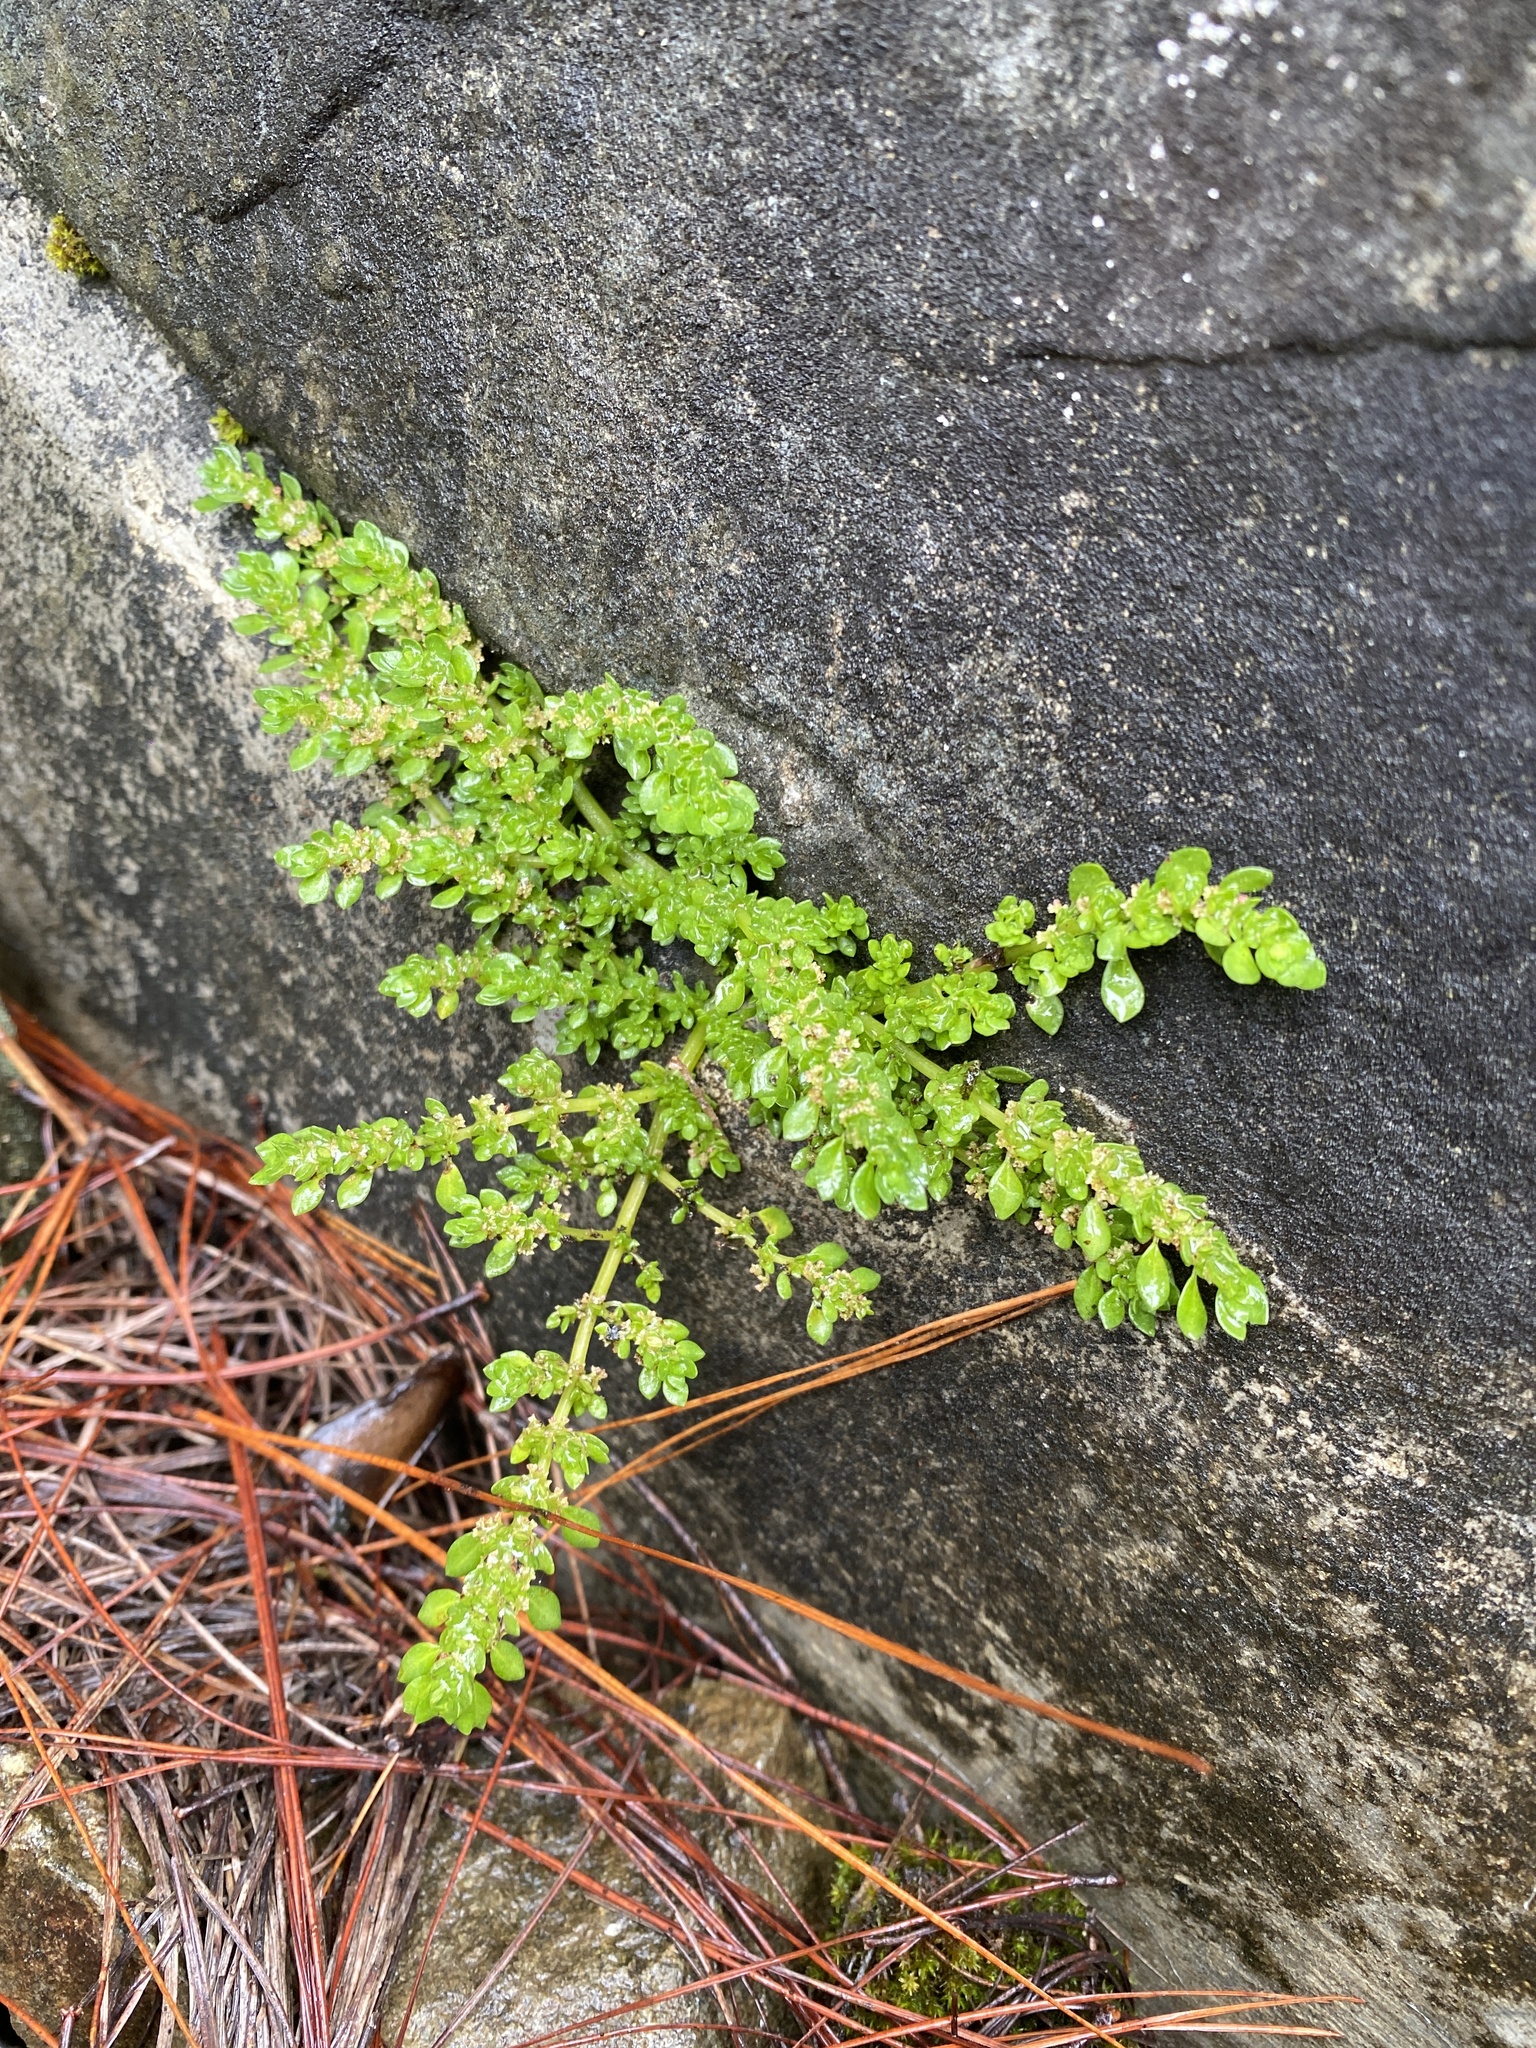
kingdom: Plantae
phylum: Tracheophyta
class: Magnoliopsida
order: Rosales
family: Urticaceae
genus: Pilea
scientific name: Pilea microphylla
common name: Artillery-plant
